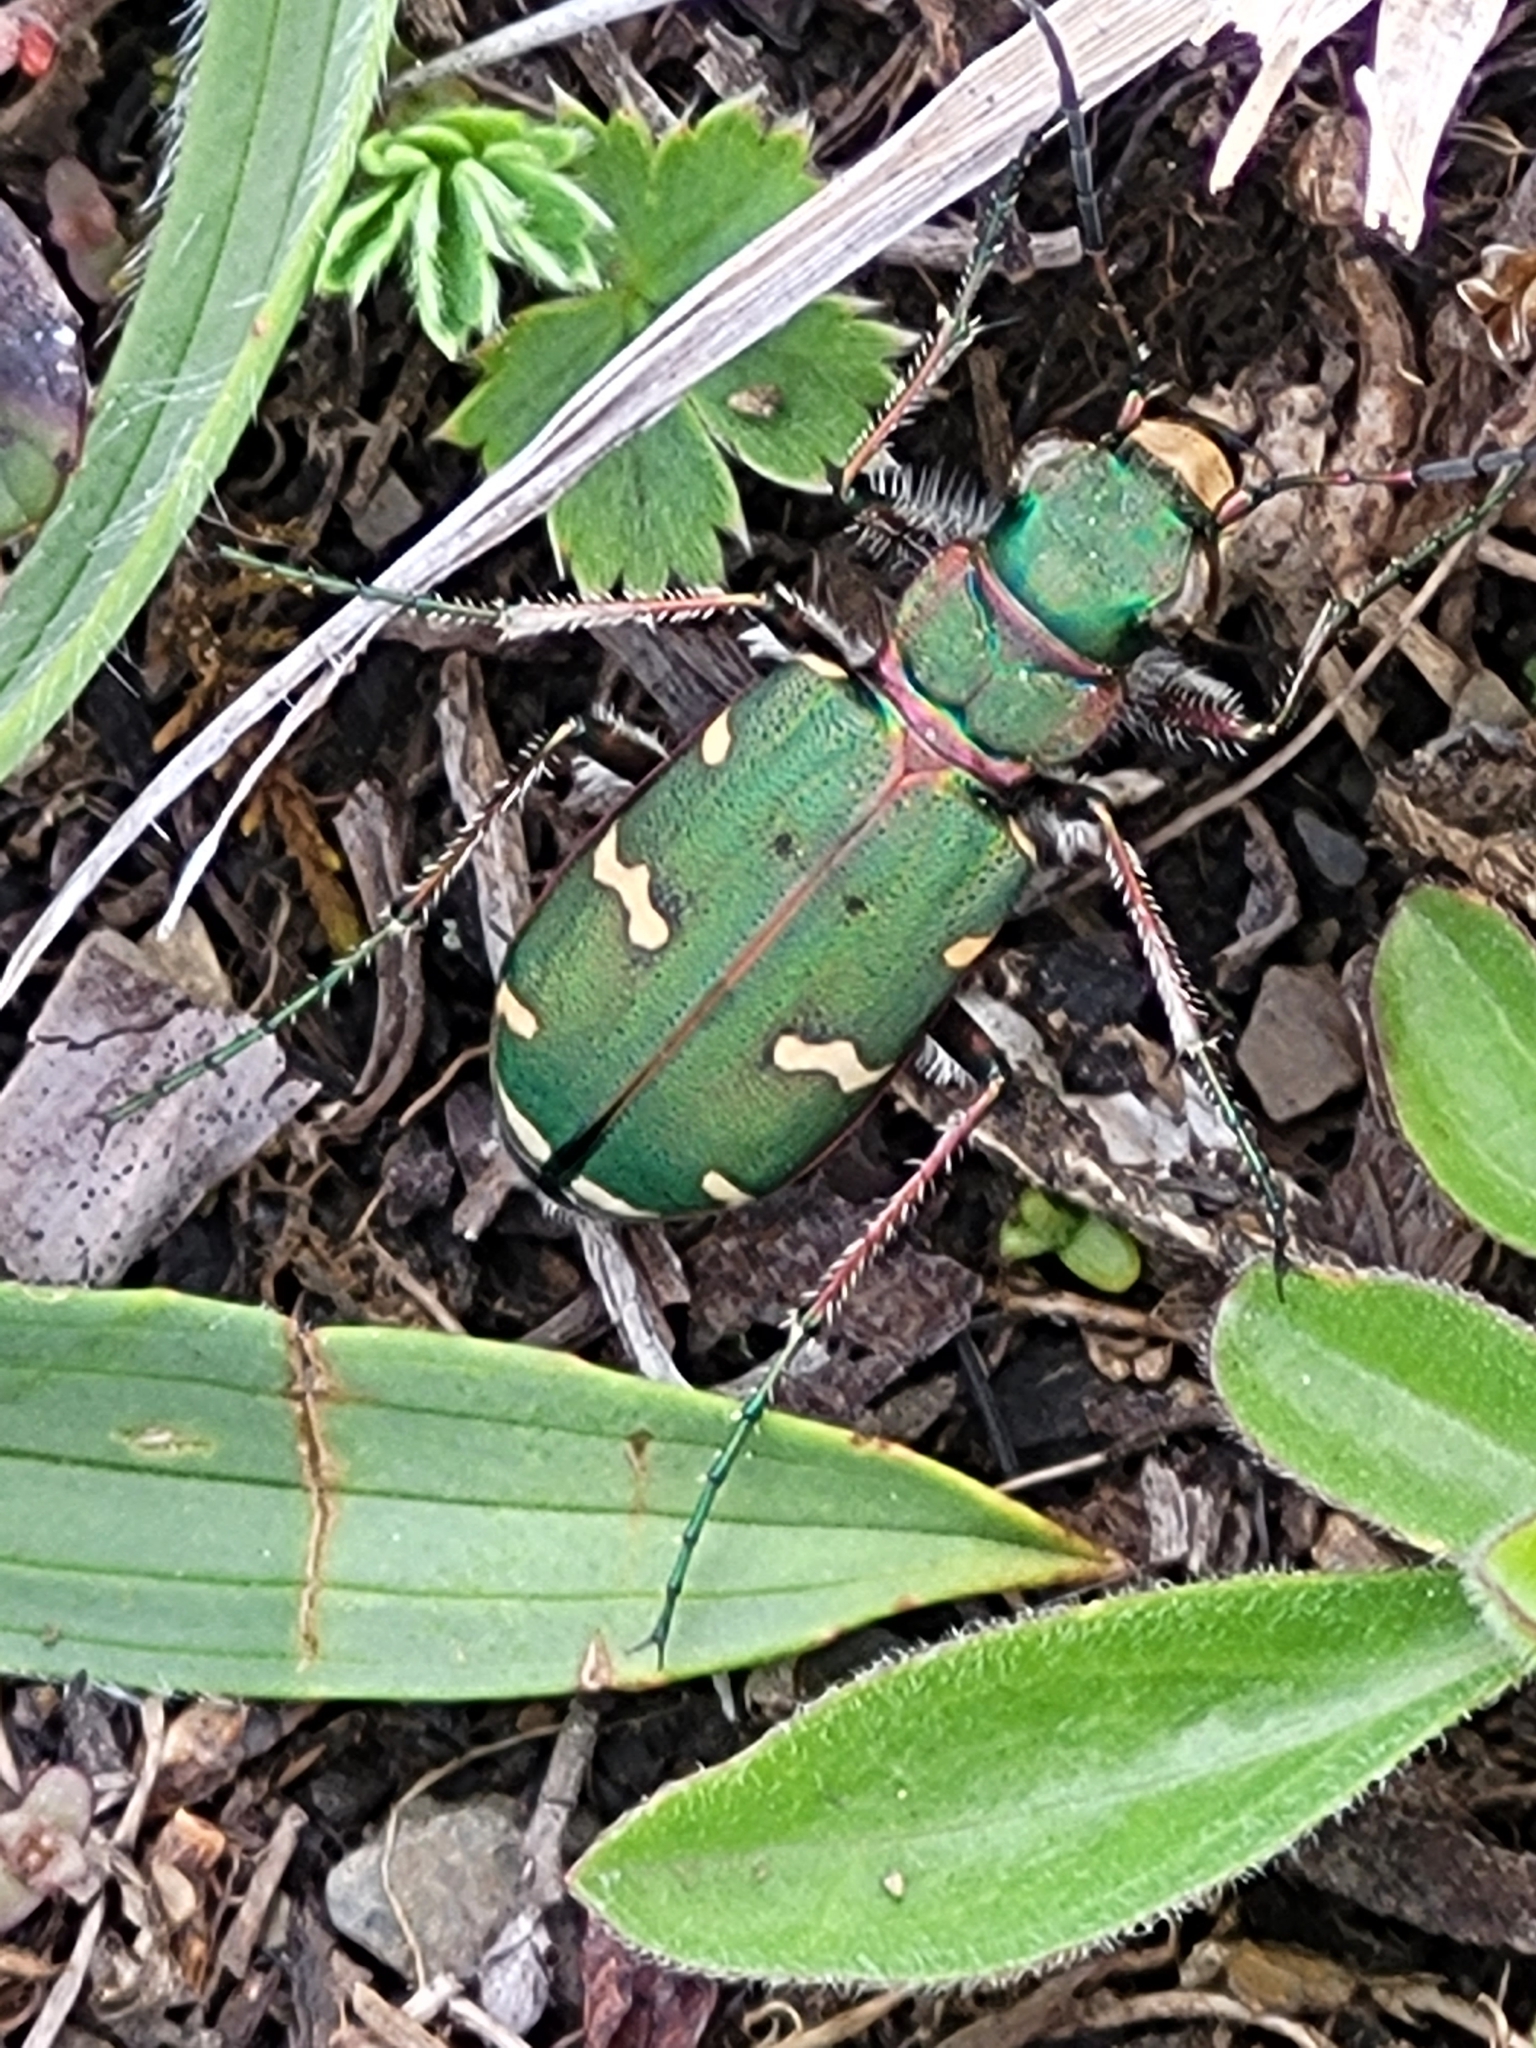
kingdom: Animalia
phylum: Arthropoda
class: Insecta
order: Coleoptera
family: Carabidae
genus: Cicindela
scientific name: Cicindela desertorum
